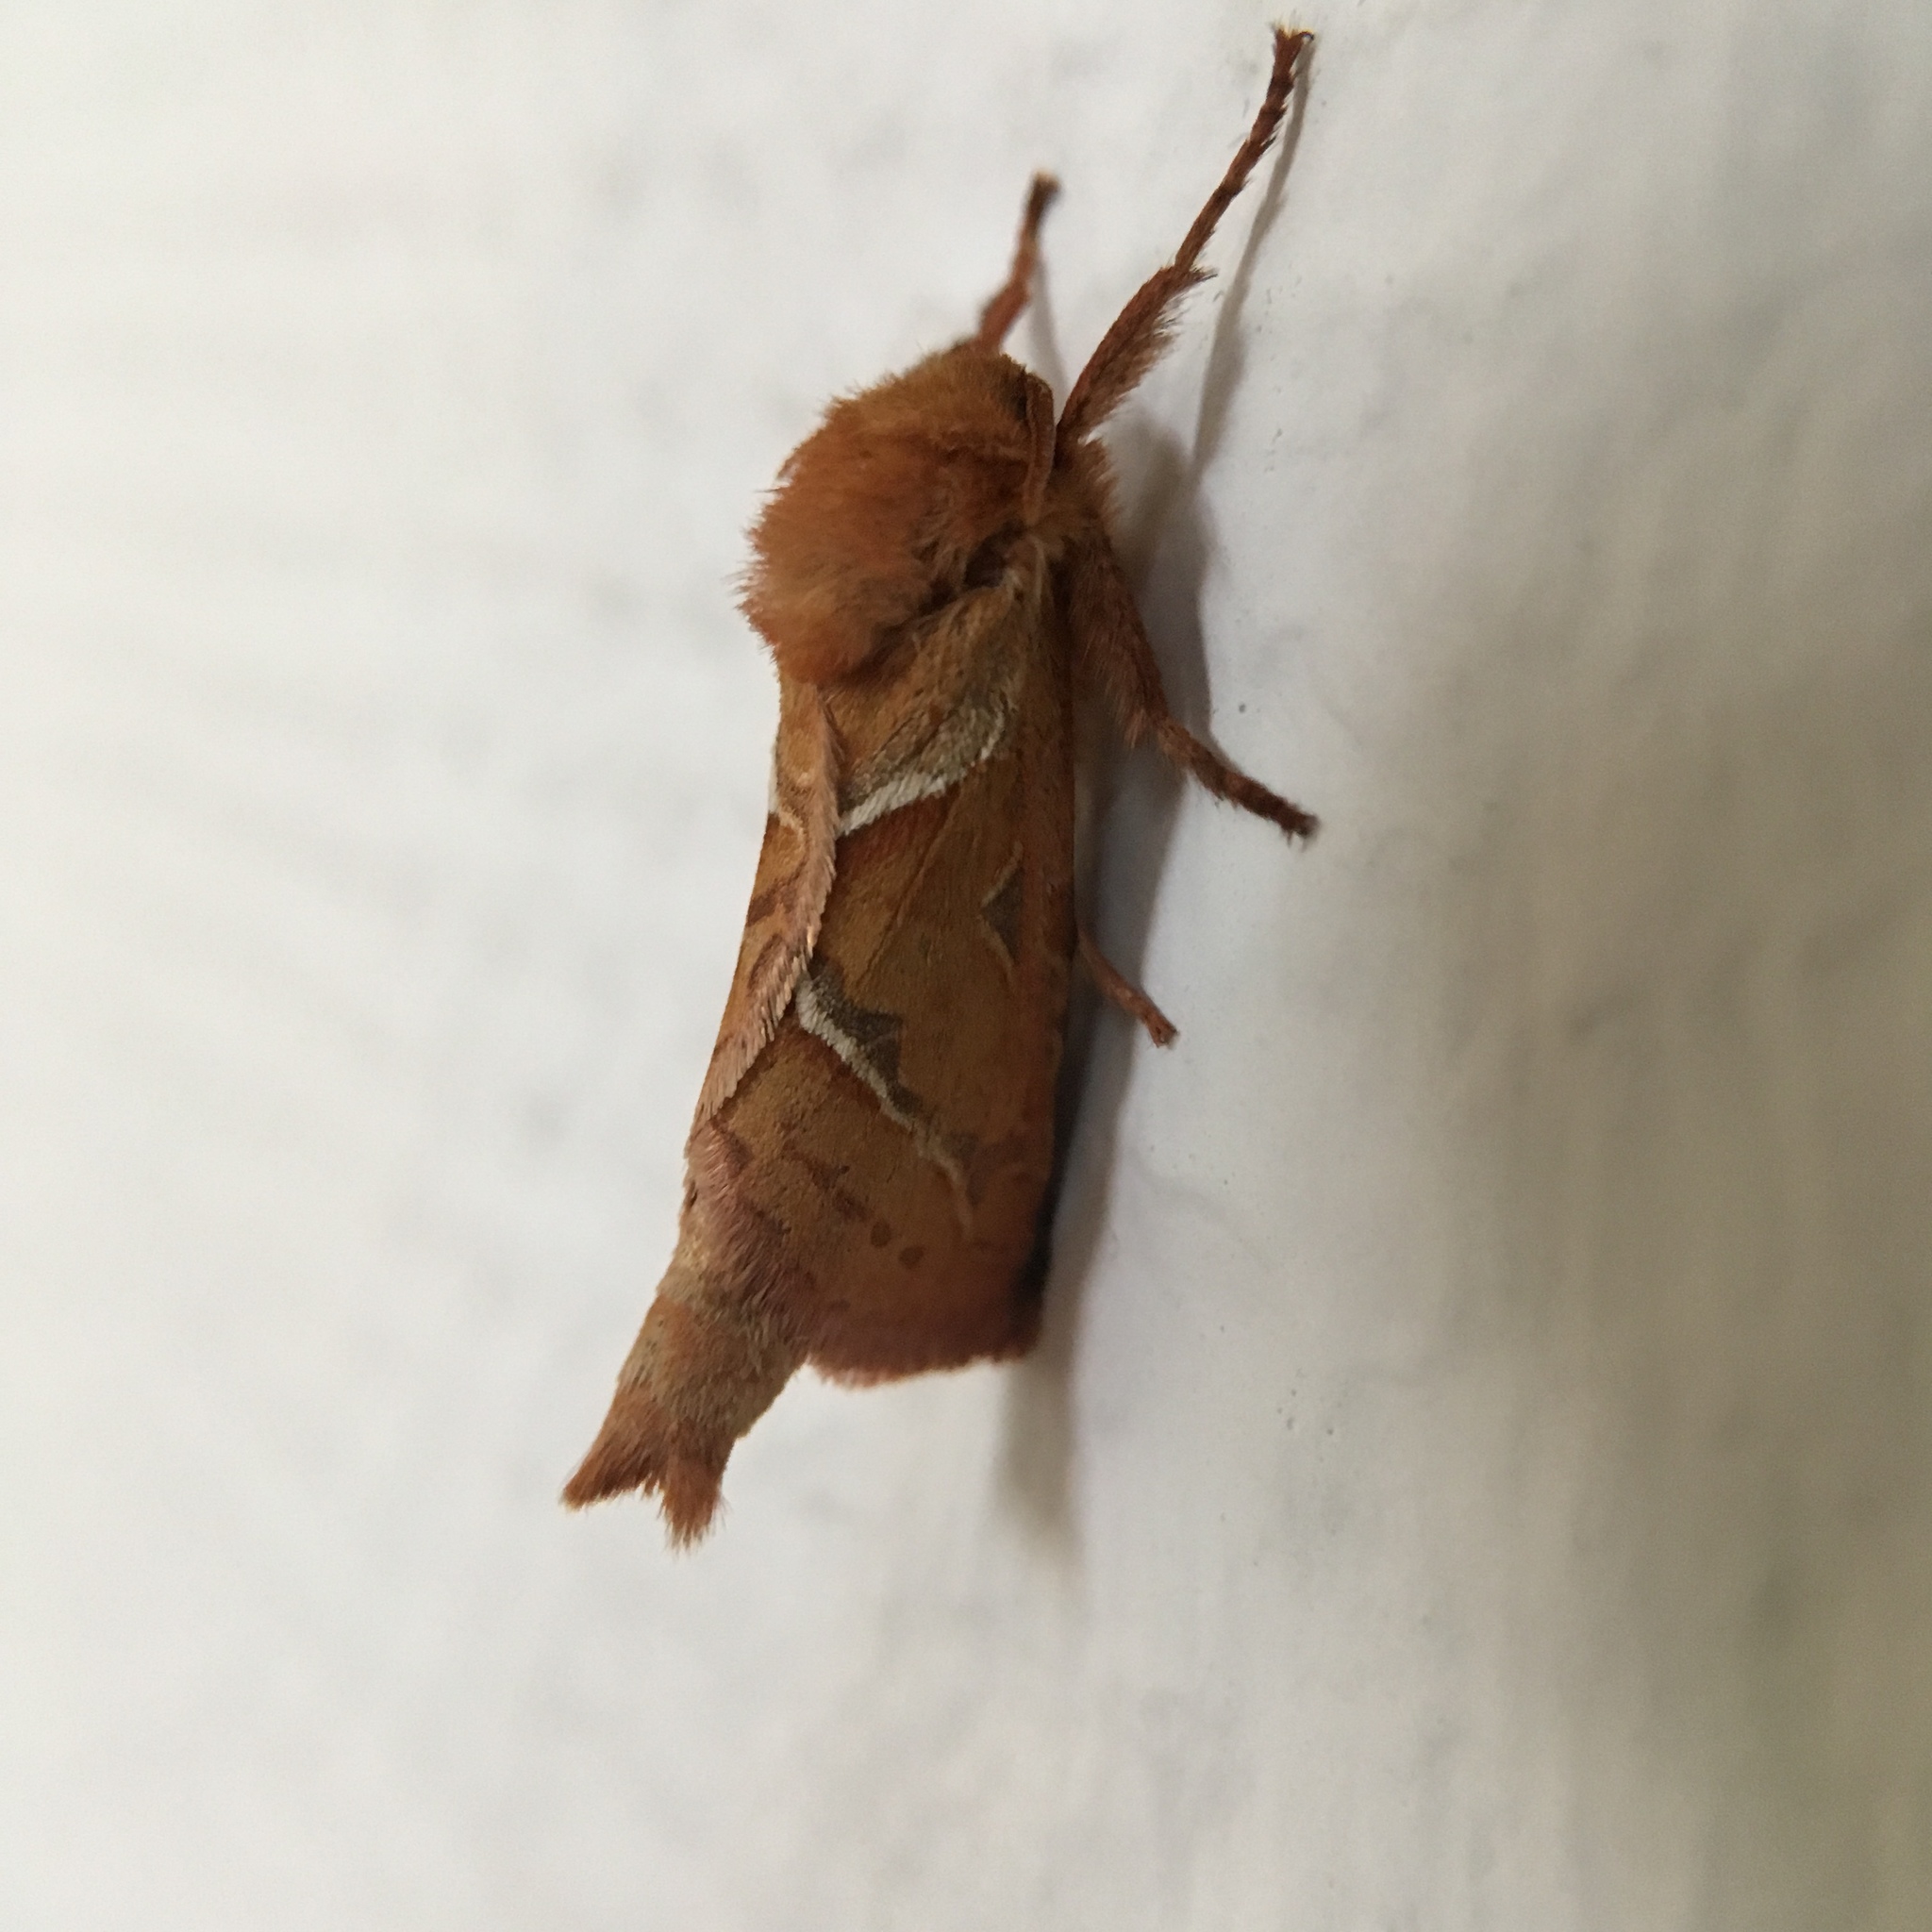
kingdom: Animalia
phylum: Arthropoda
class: Insecta
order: Lepidoptera
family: Hepialidae
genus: Triodia
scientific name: Triodia sylvina
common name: Orange swift
